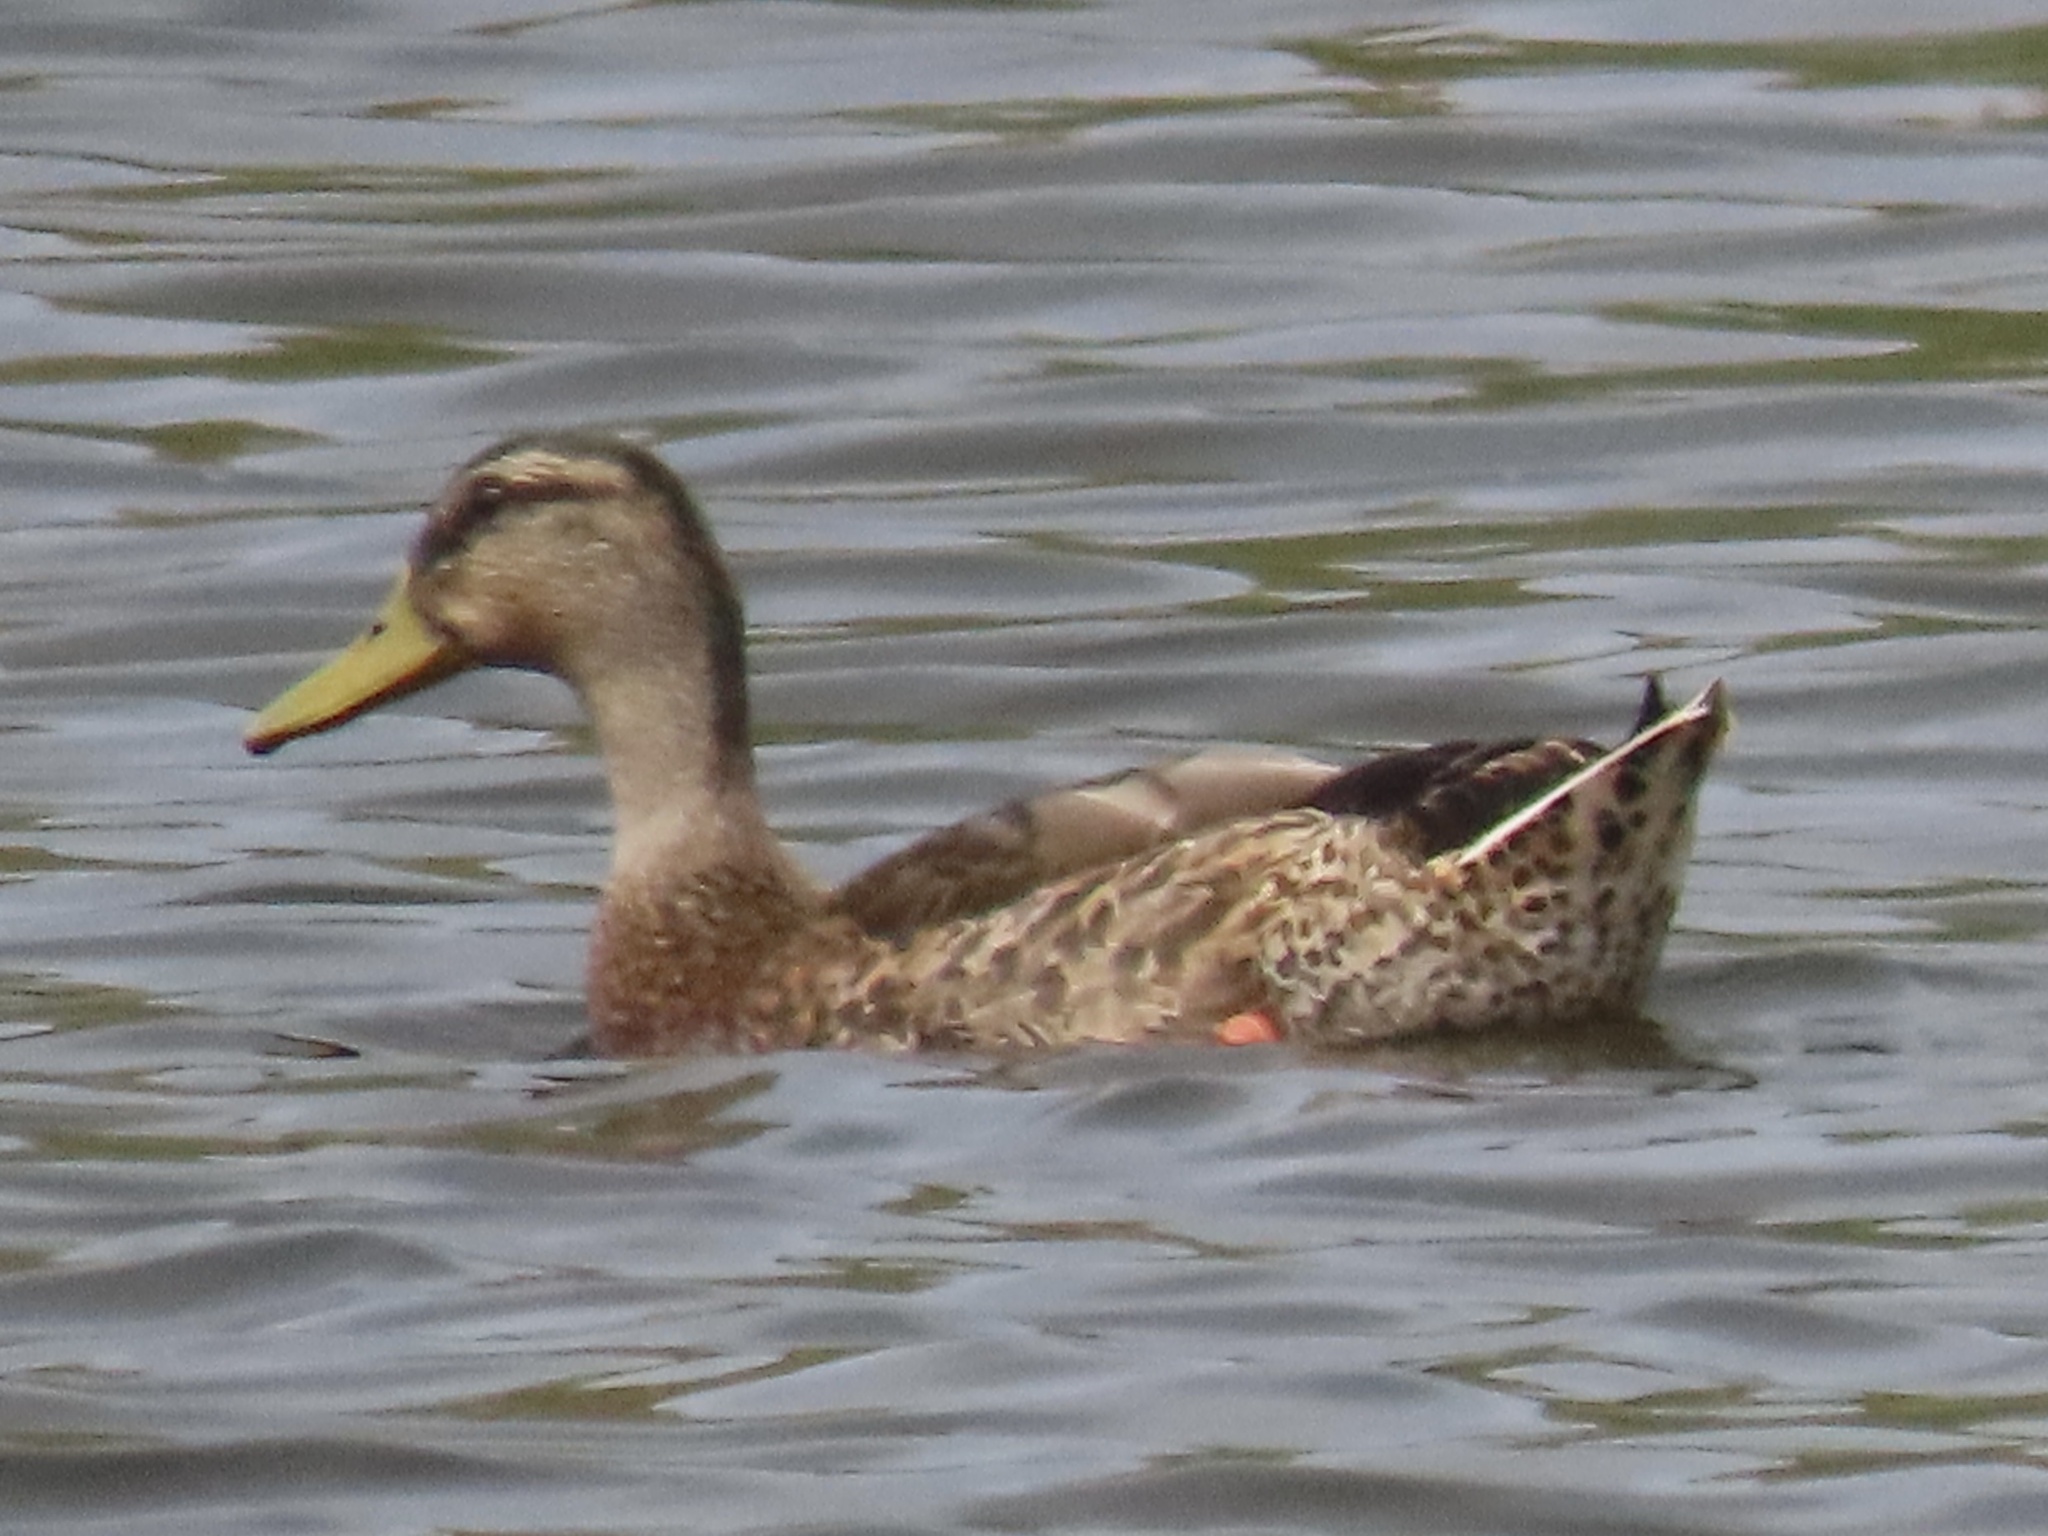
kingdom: Animalia
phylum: Chordata
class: Aves
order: Anseriformes
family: Anatidae
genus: Anas
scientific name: Anas platyrhynchos
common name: Mallard
